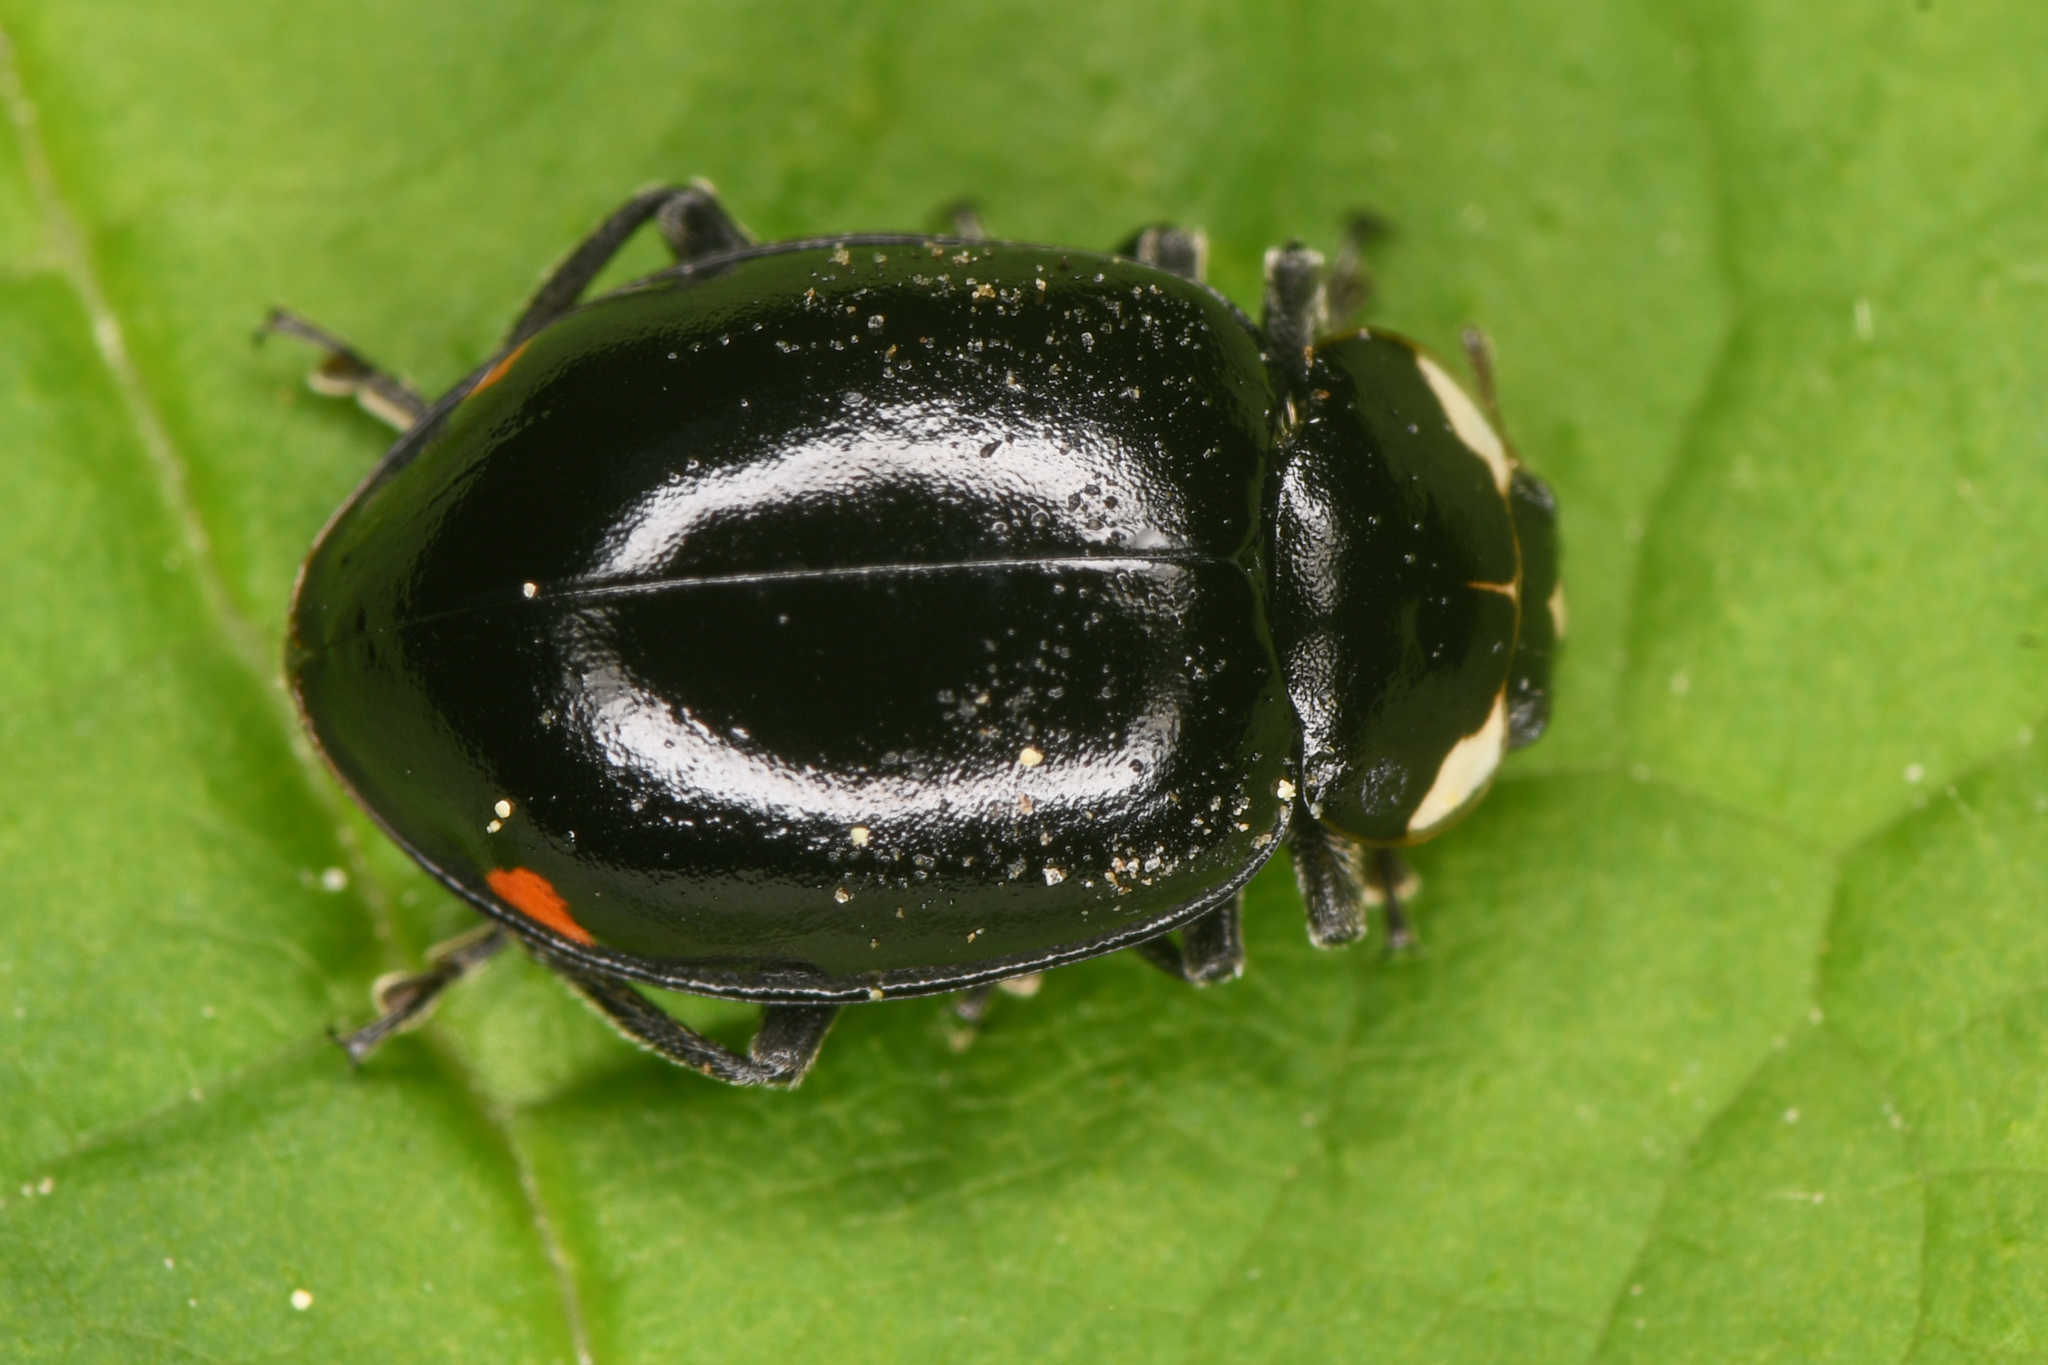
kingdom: Animalia
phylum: Arthropoda
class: Insecta
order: Coleoptera
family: Coccinellidae
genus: Hippodamia
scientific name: Hippodamia moesta
